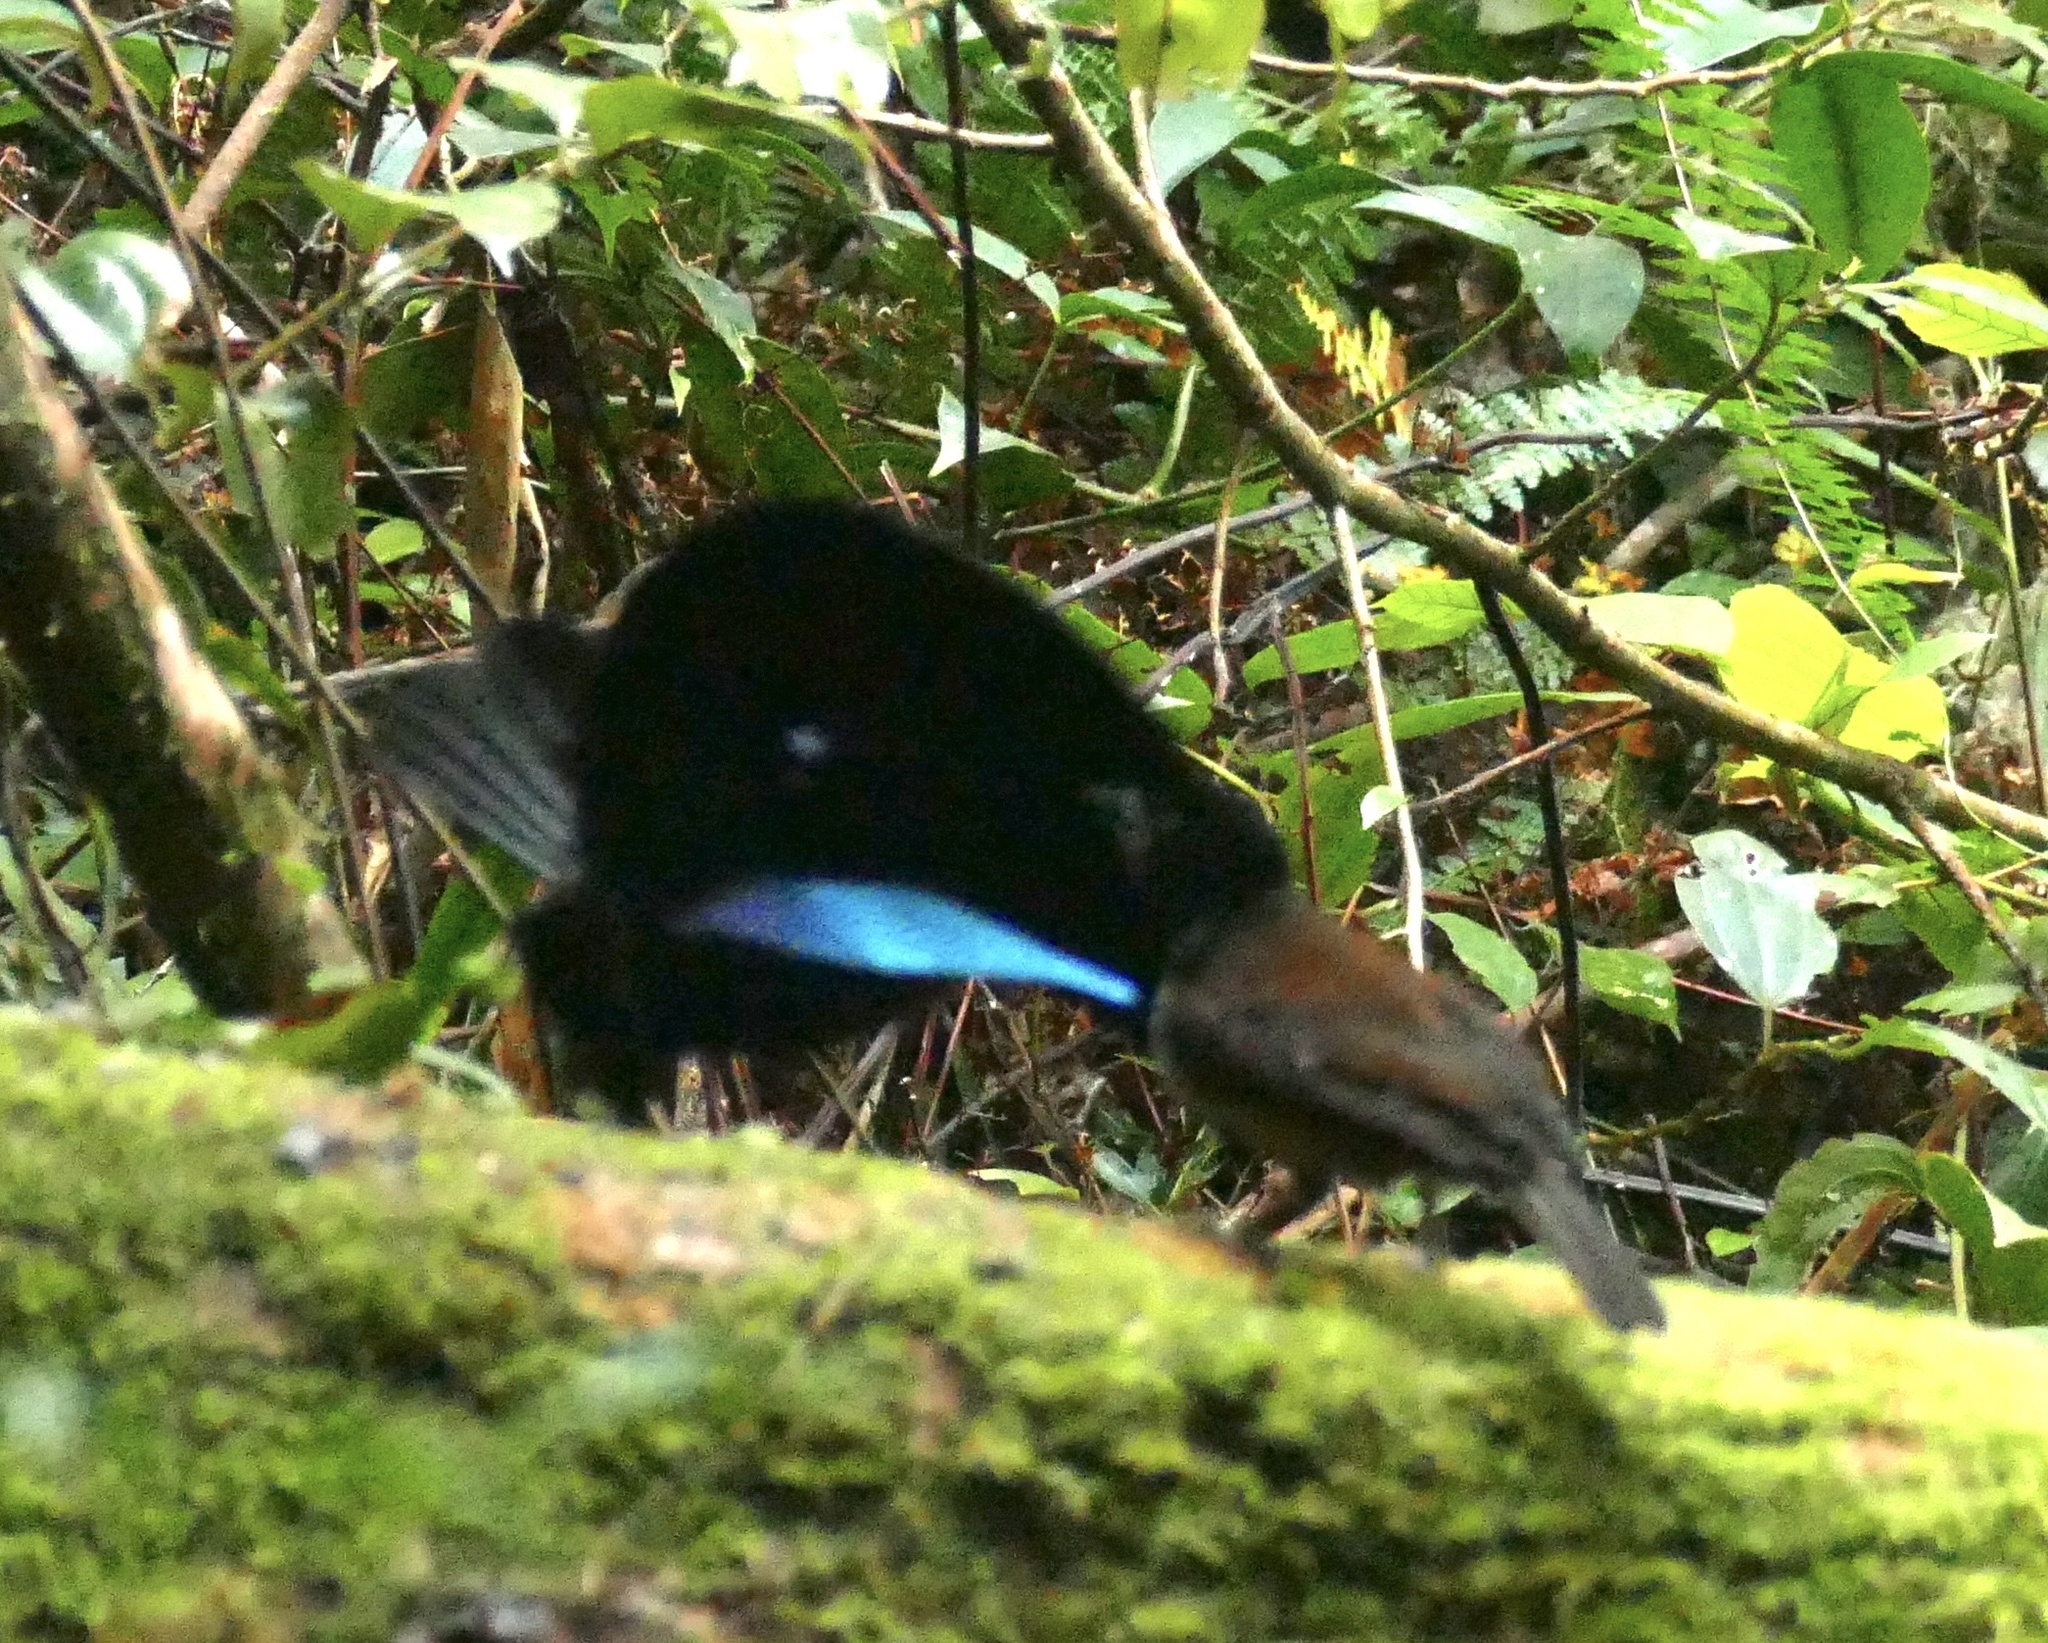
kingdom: Animalia
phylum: Chordata
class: Aves
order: Passeriformes
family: Paradisaeidae
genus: Lophorina
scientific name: Lophorina niedda
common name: Vogelkop superb bird-of-paradise
